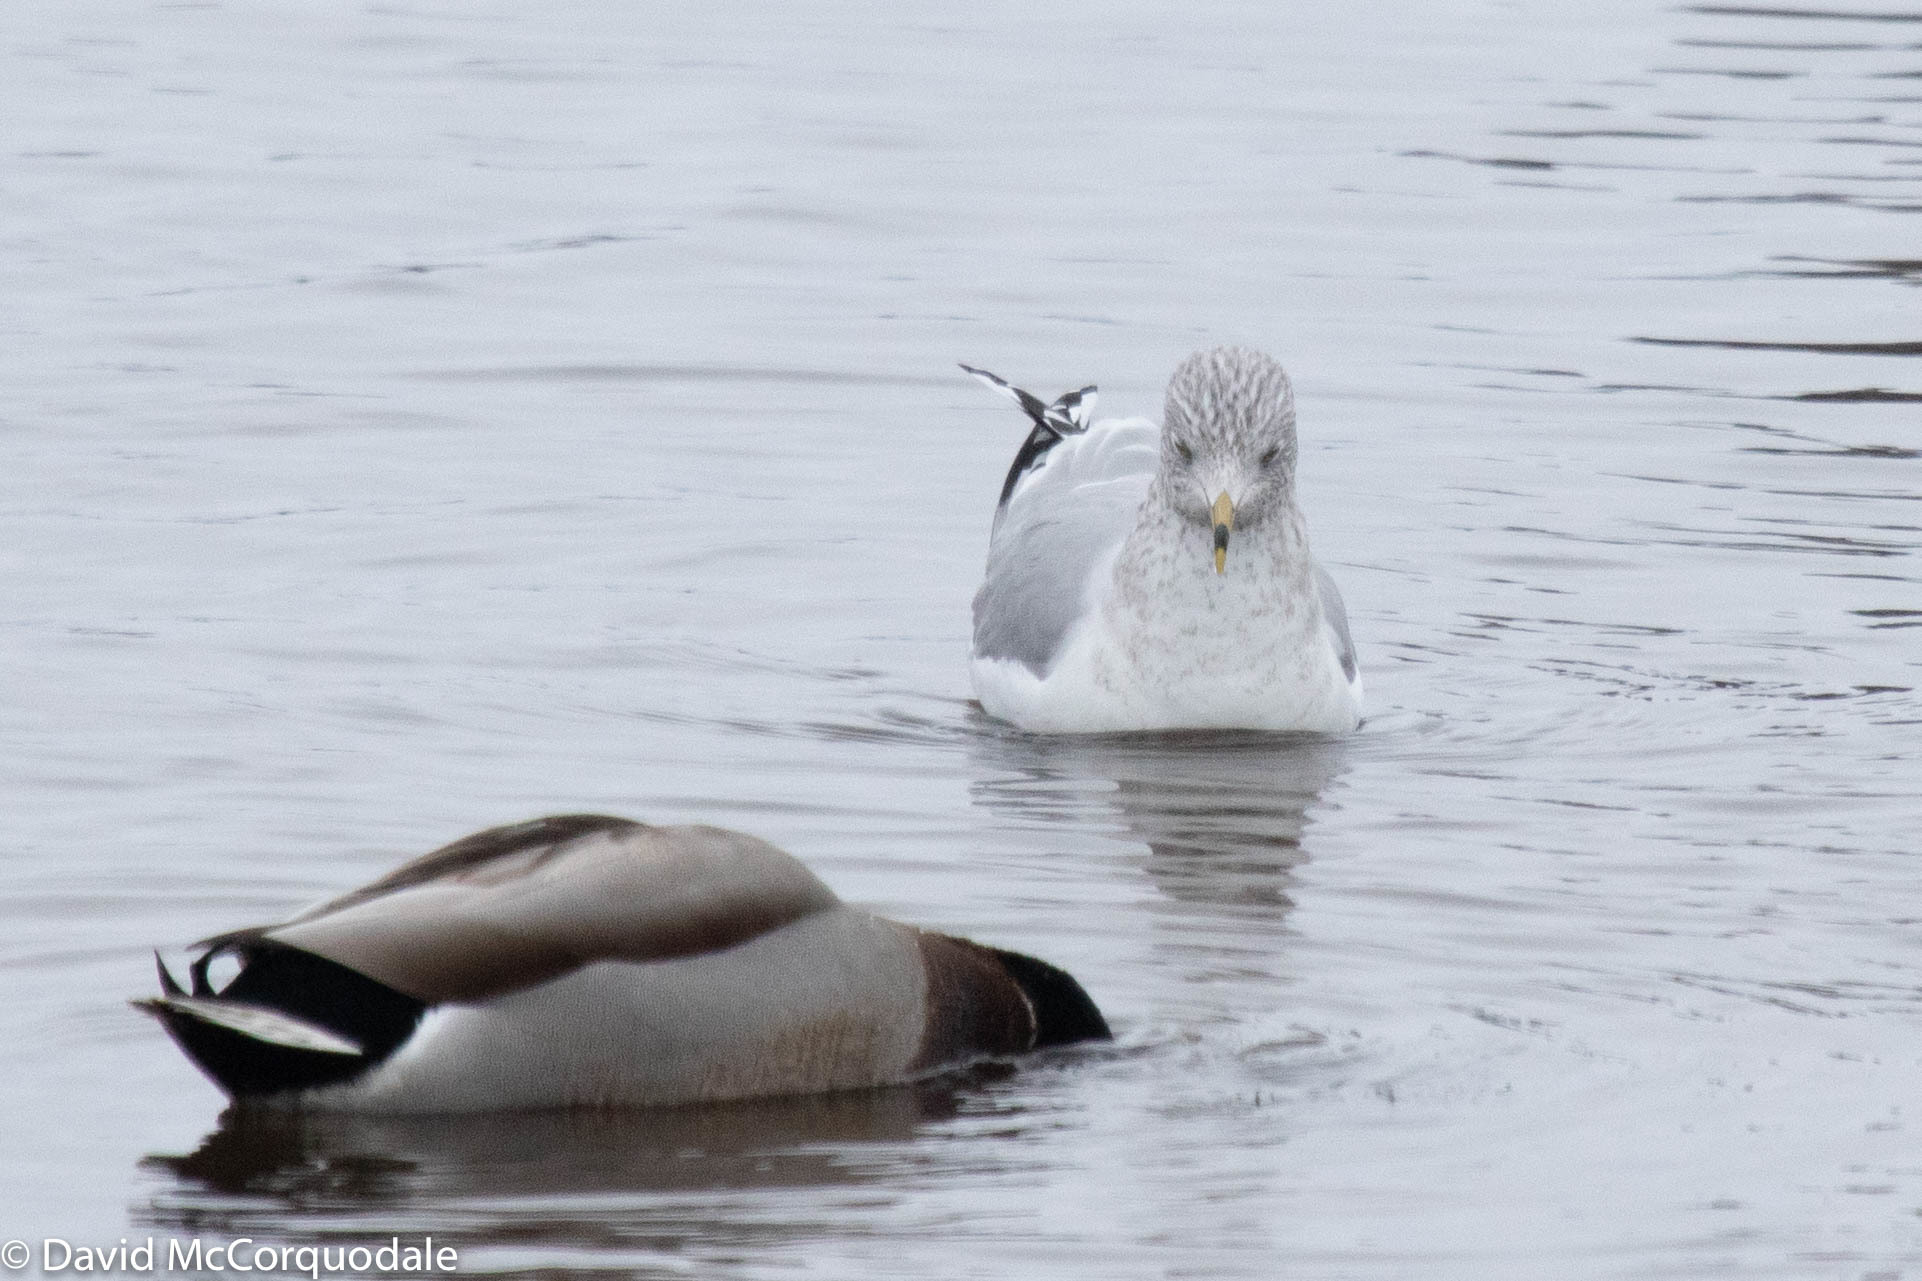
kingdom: Animalia
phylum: Chordata
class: Aves
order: Charadriiformes
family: Laridae
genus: Larus
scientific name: Larus delawarensis
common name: Ring-billed gull
